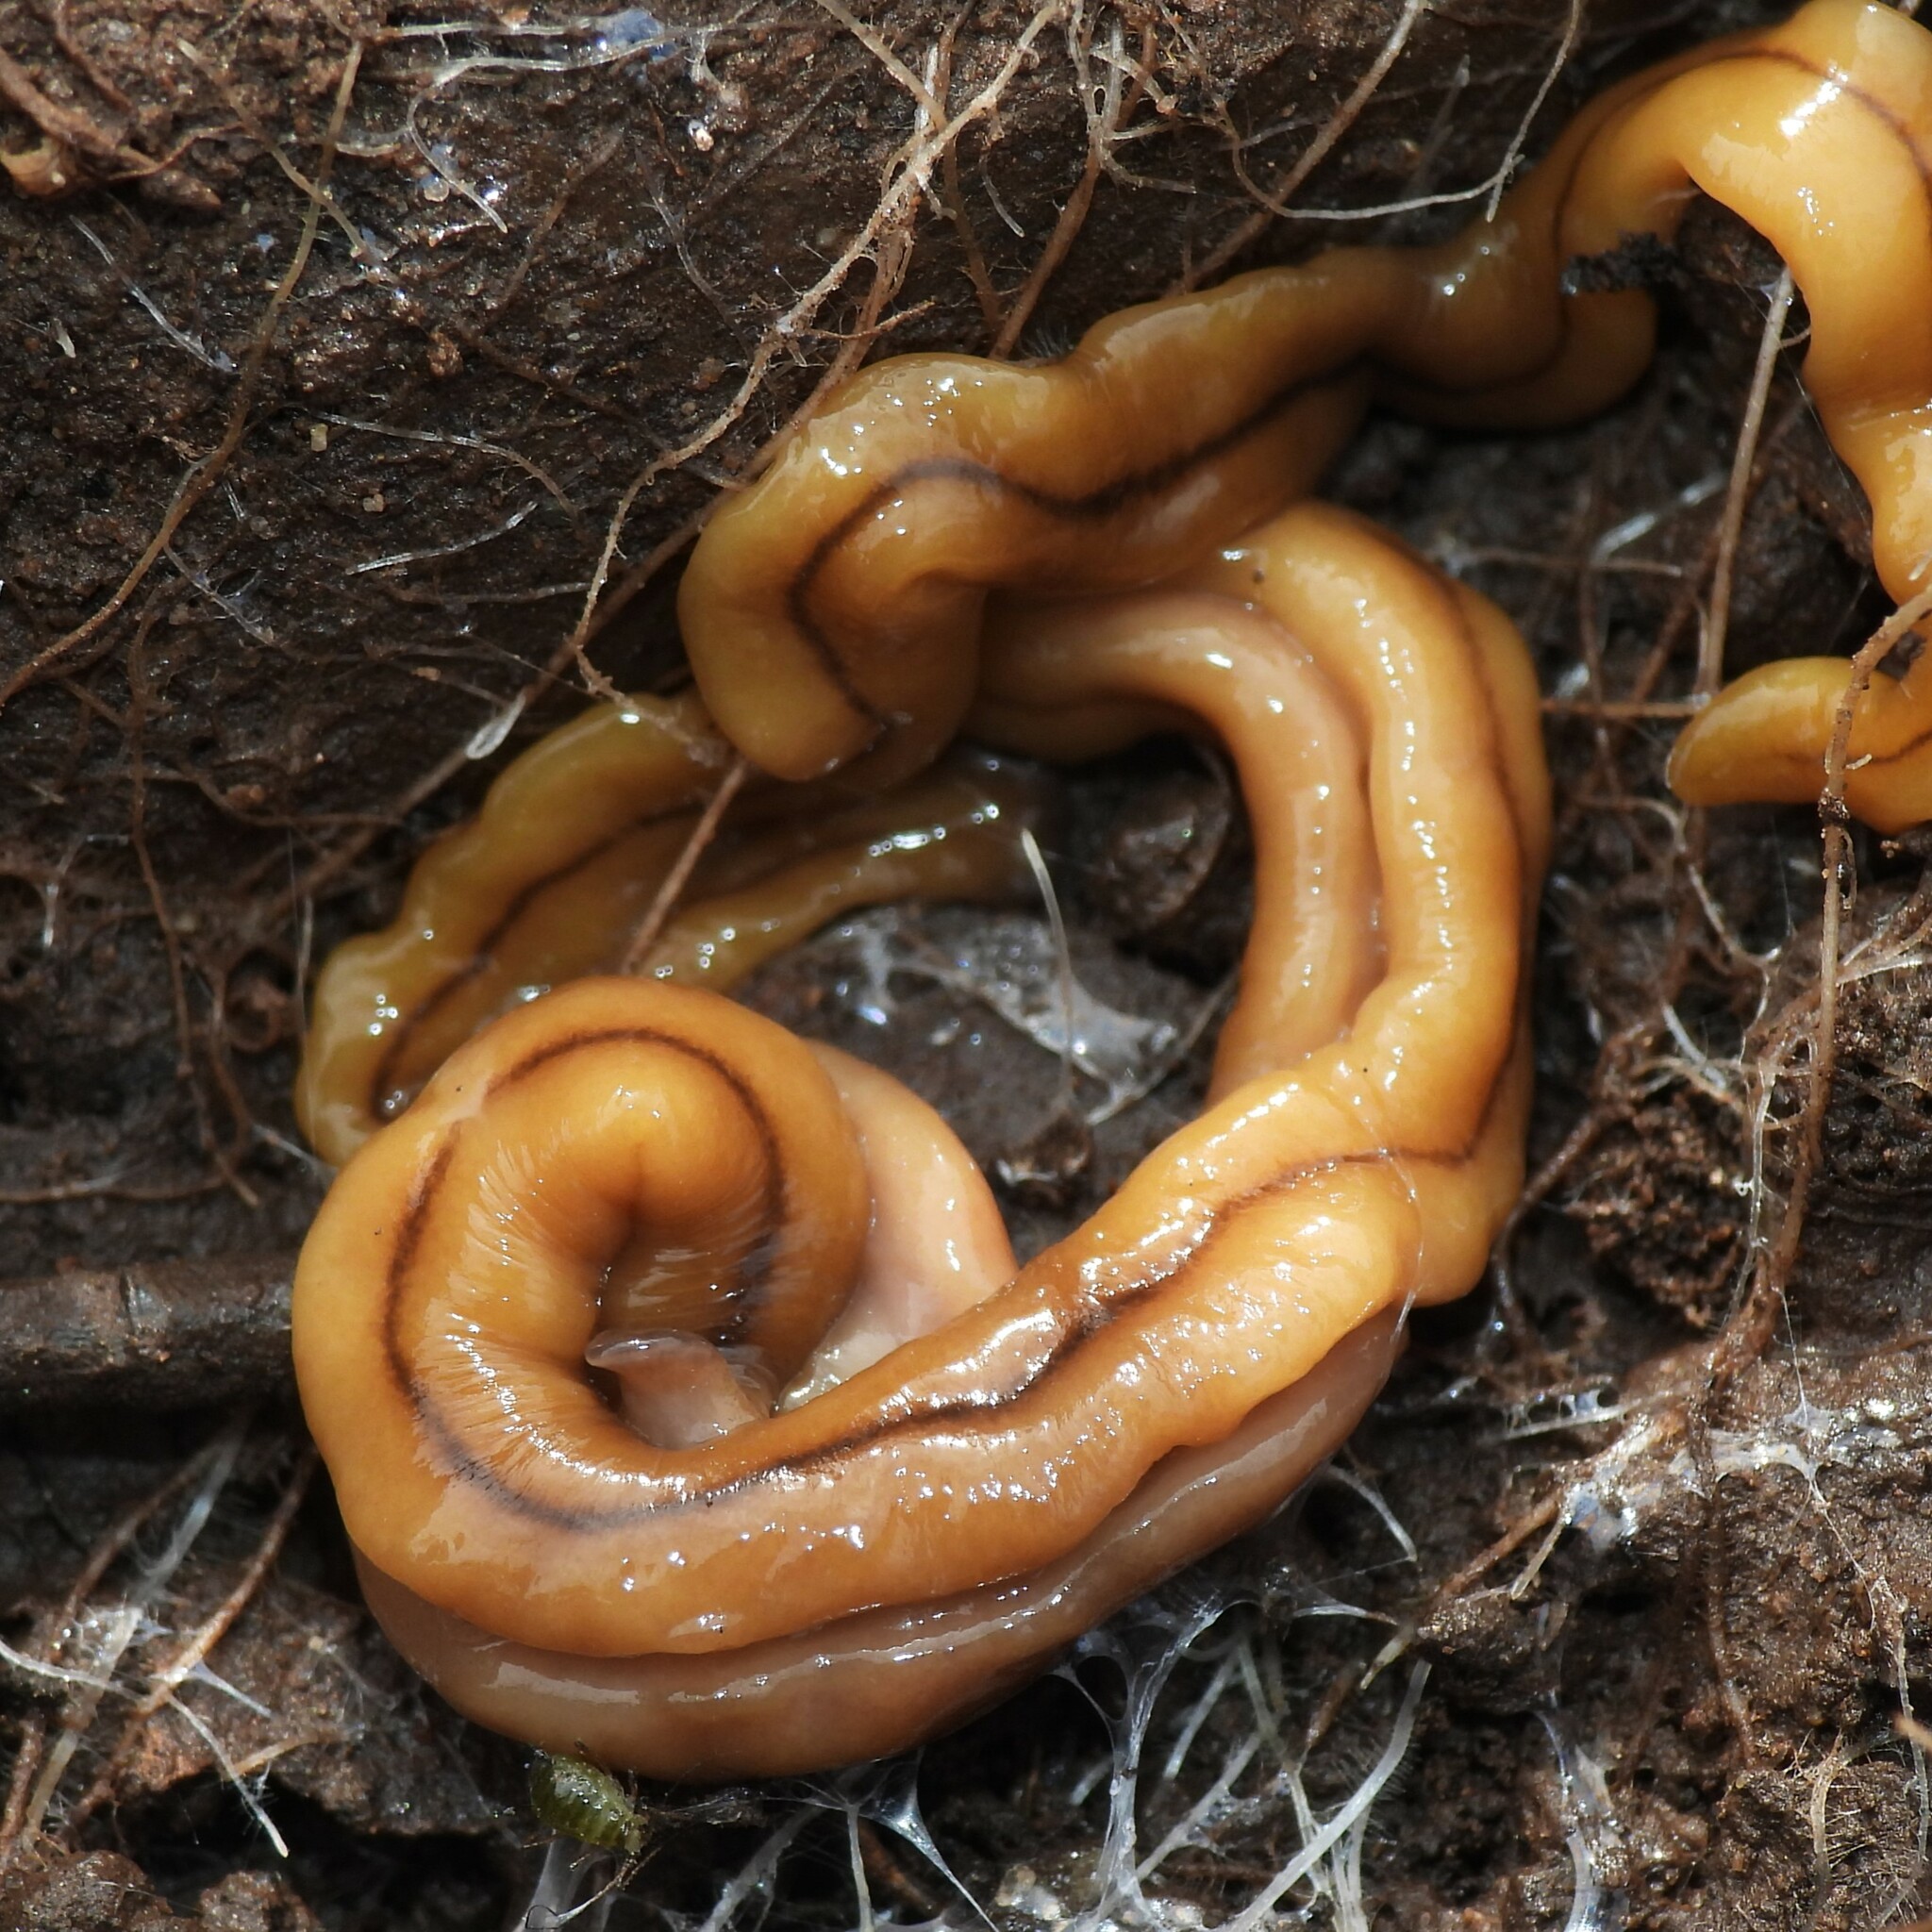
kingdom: Animalia
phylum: Platyhelminthes
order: Tricladida
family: Geoplanidae
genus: Bipalium
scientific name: Bipalium adventitium
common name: Land planarian
